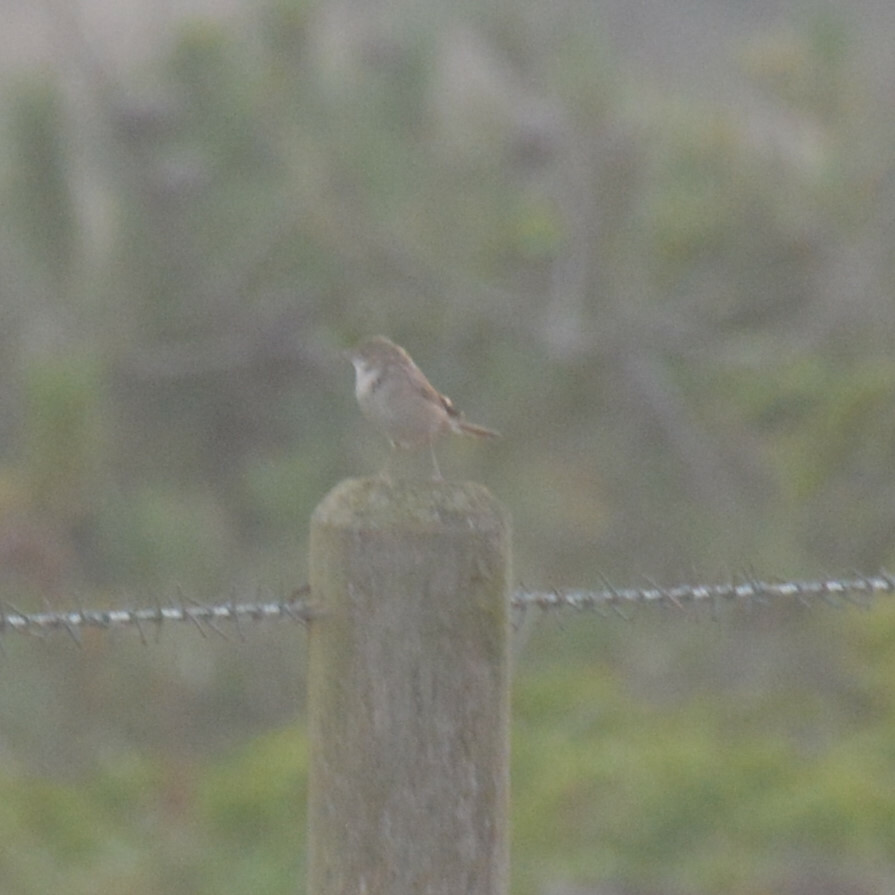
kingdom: Animalia
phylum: Chordata
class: Aves
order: Passeriformes
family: Sylviidae
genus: Sylvia
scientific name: Sylvia communis
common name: Common whitethroat
